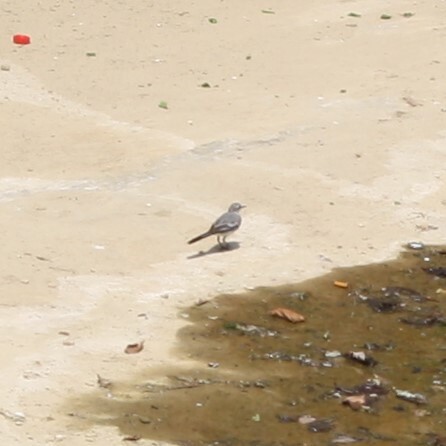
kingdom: Animalia
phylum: Chordata
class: Aves
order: Passeriformes
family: Motacillidae
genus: Motacilla
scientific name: Motacilla alba
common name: White wagtail
